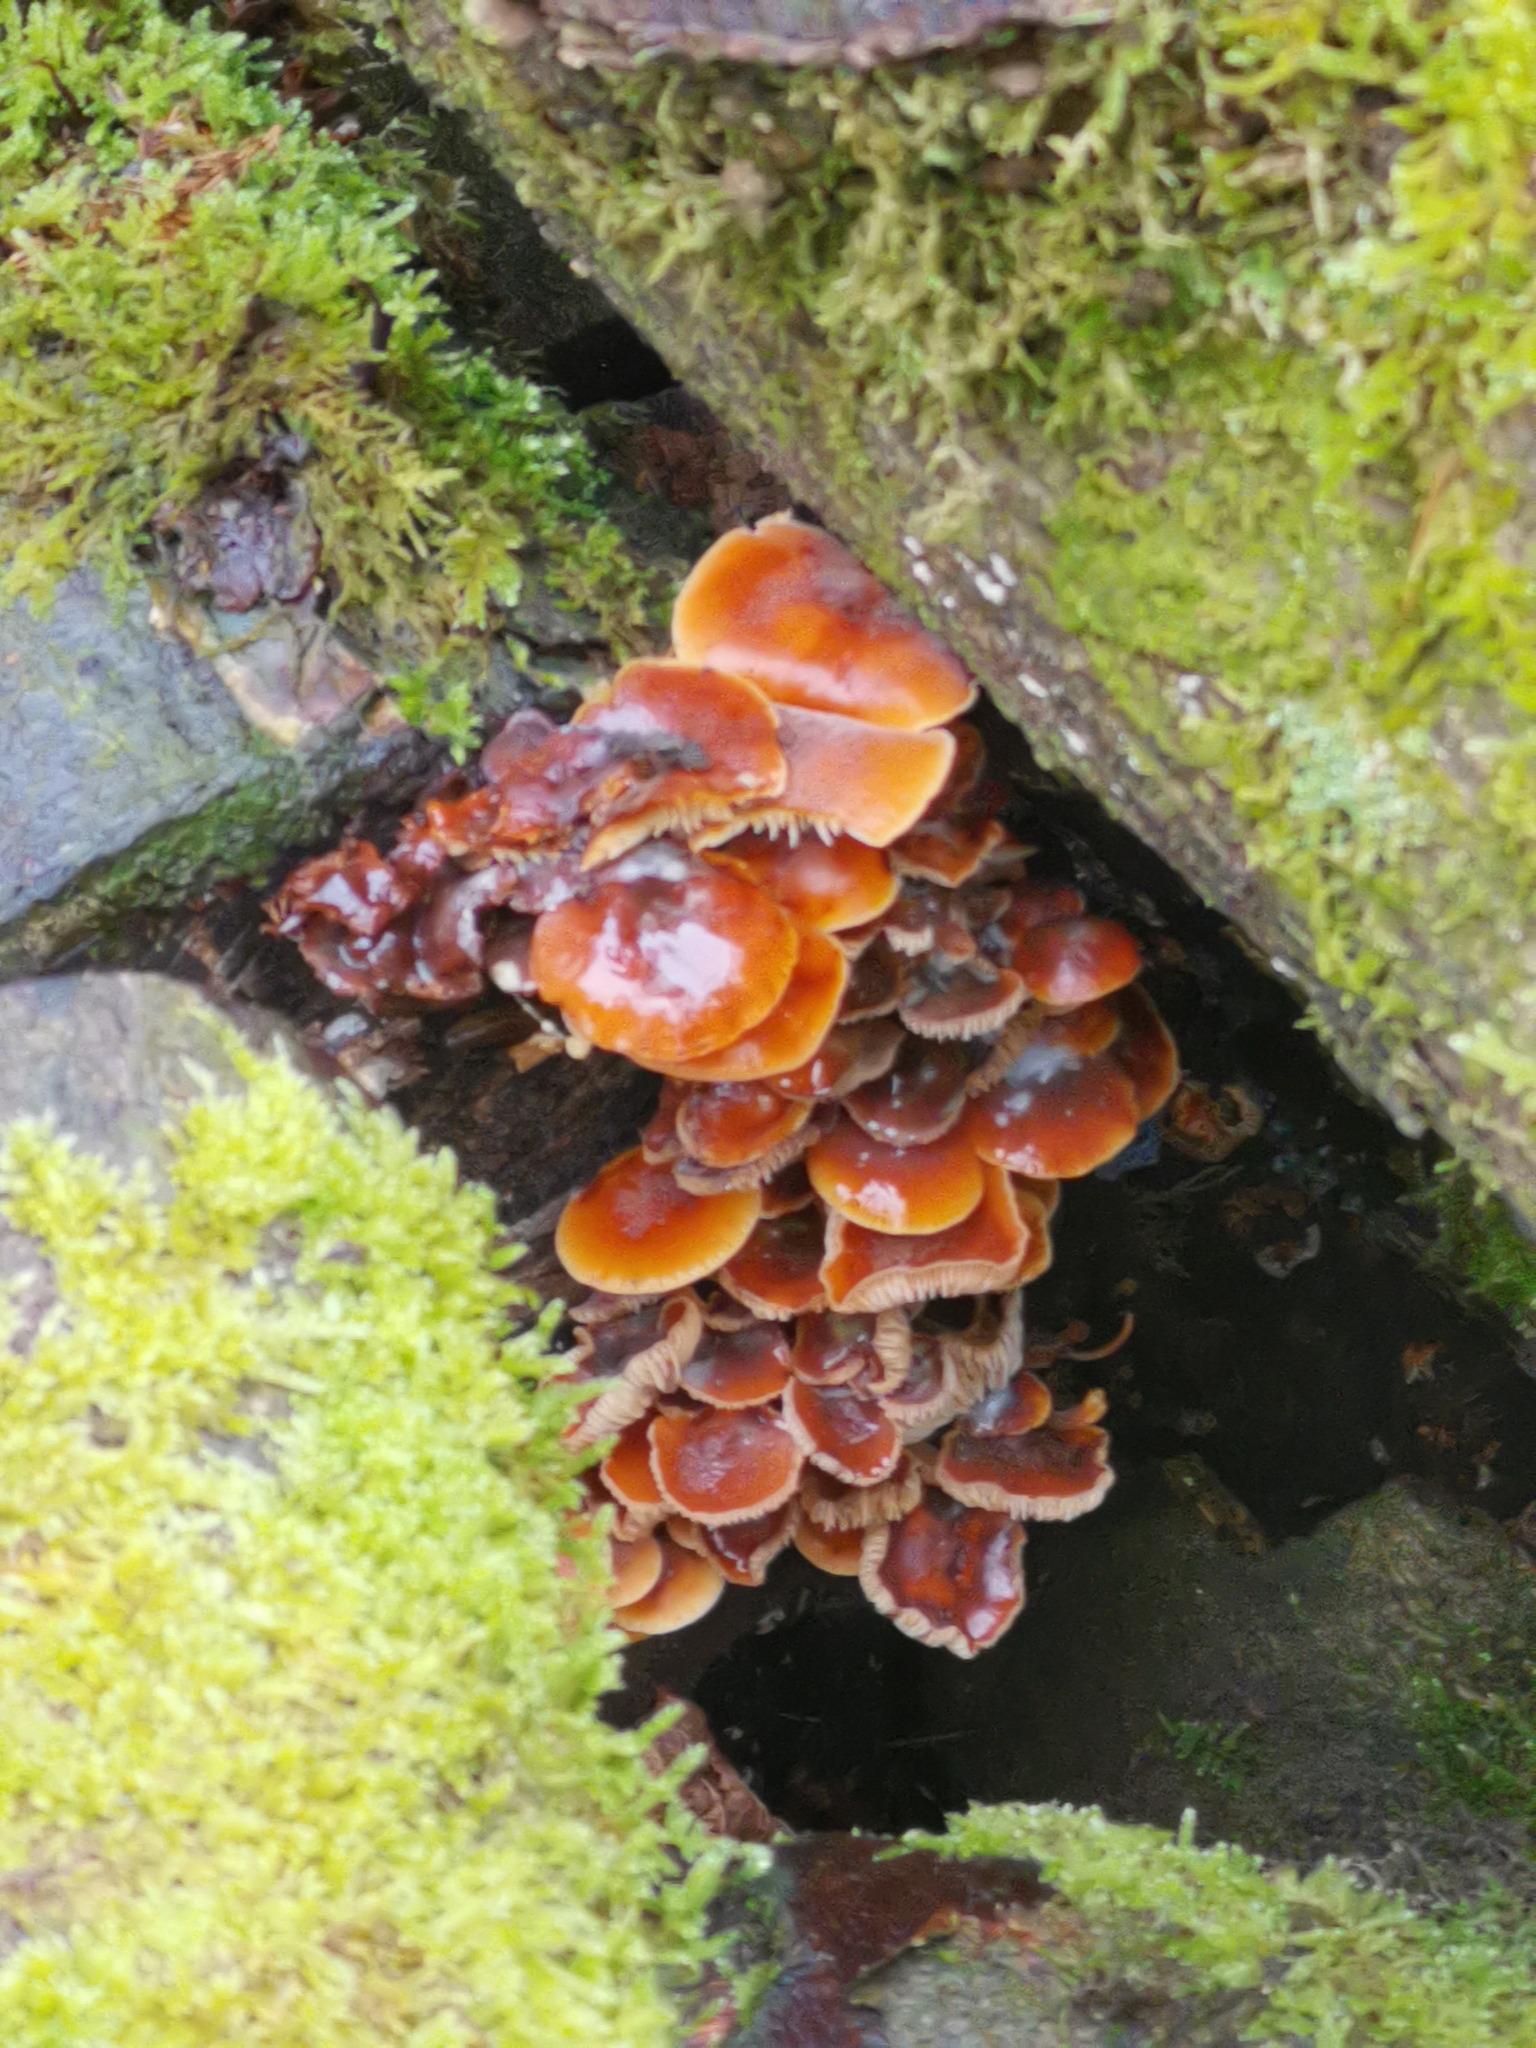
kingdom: Fungi
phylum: Basidiomycota
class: Agaricomycetes
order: Agaricales
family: Physalacriaceae
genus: Flammulina
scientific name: Flammulina
